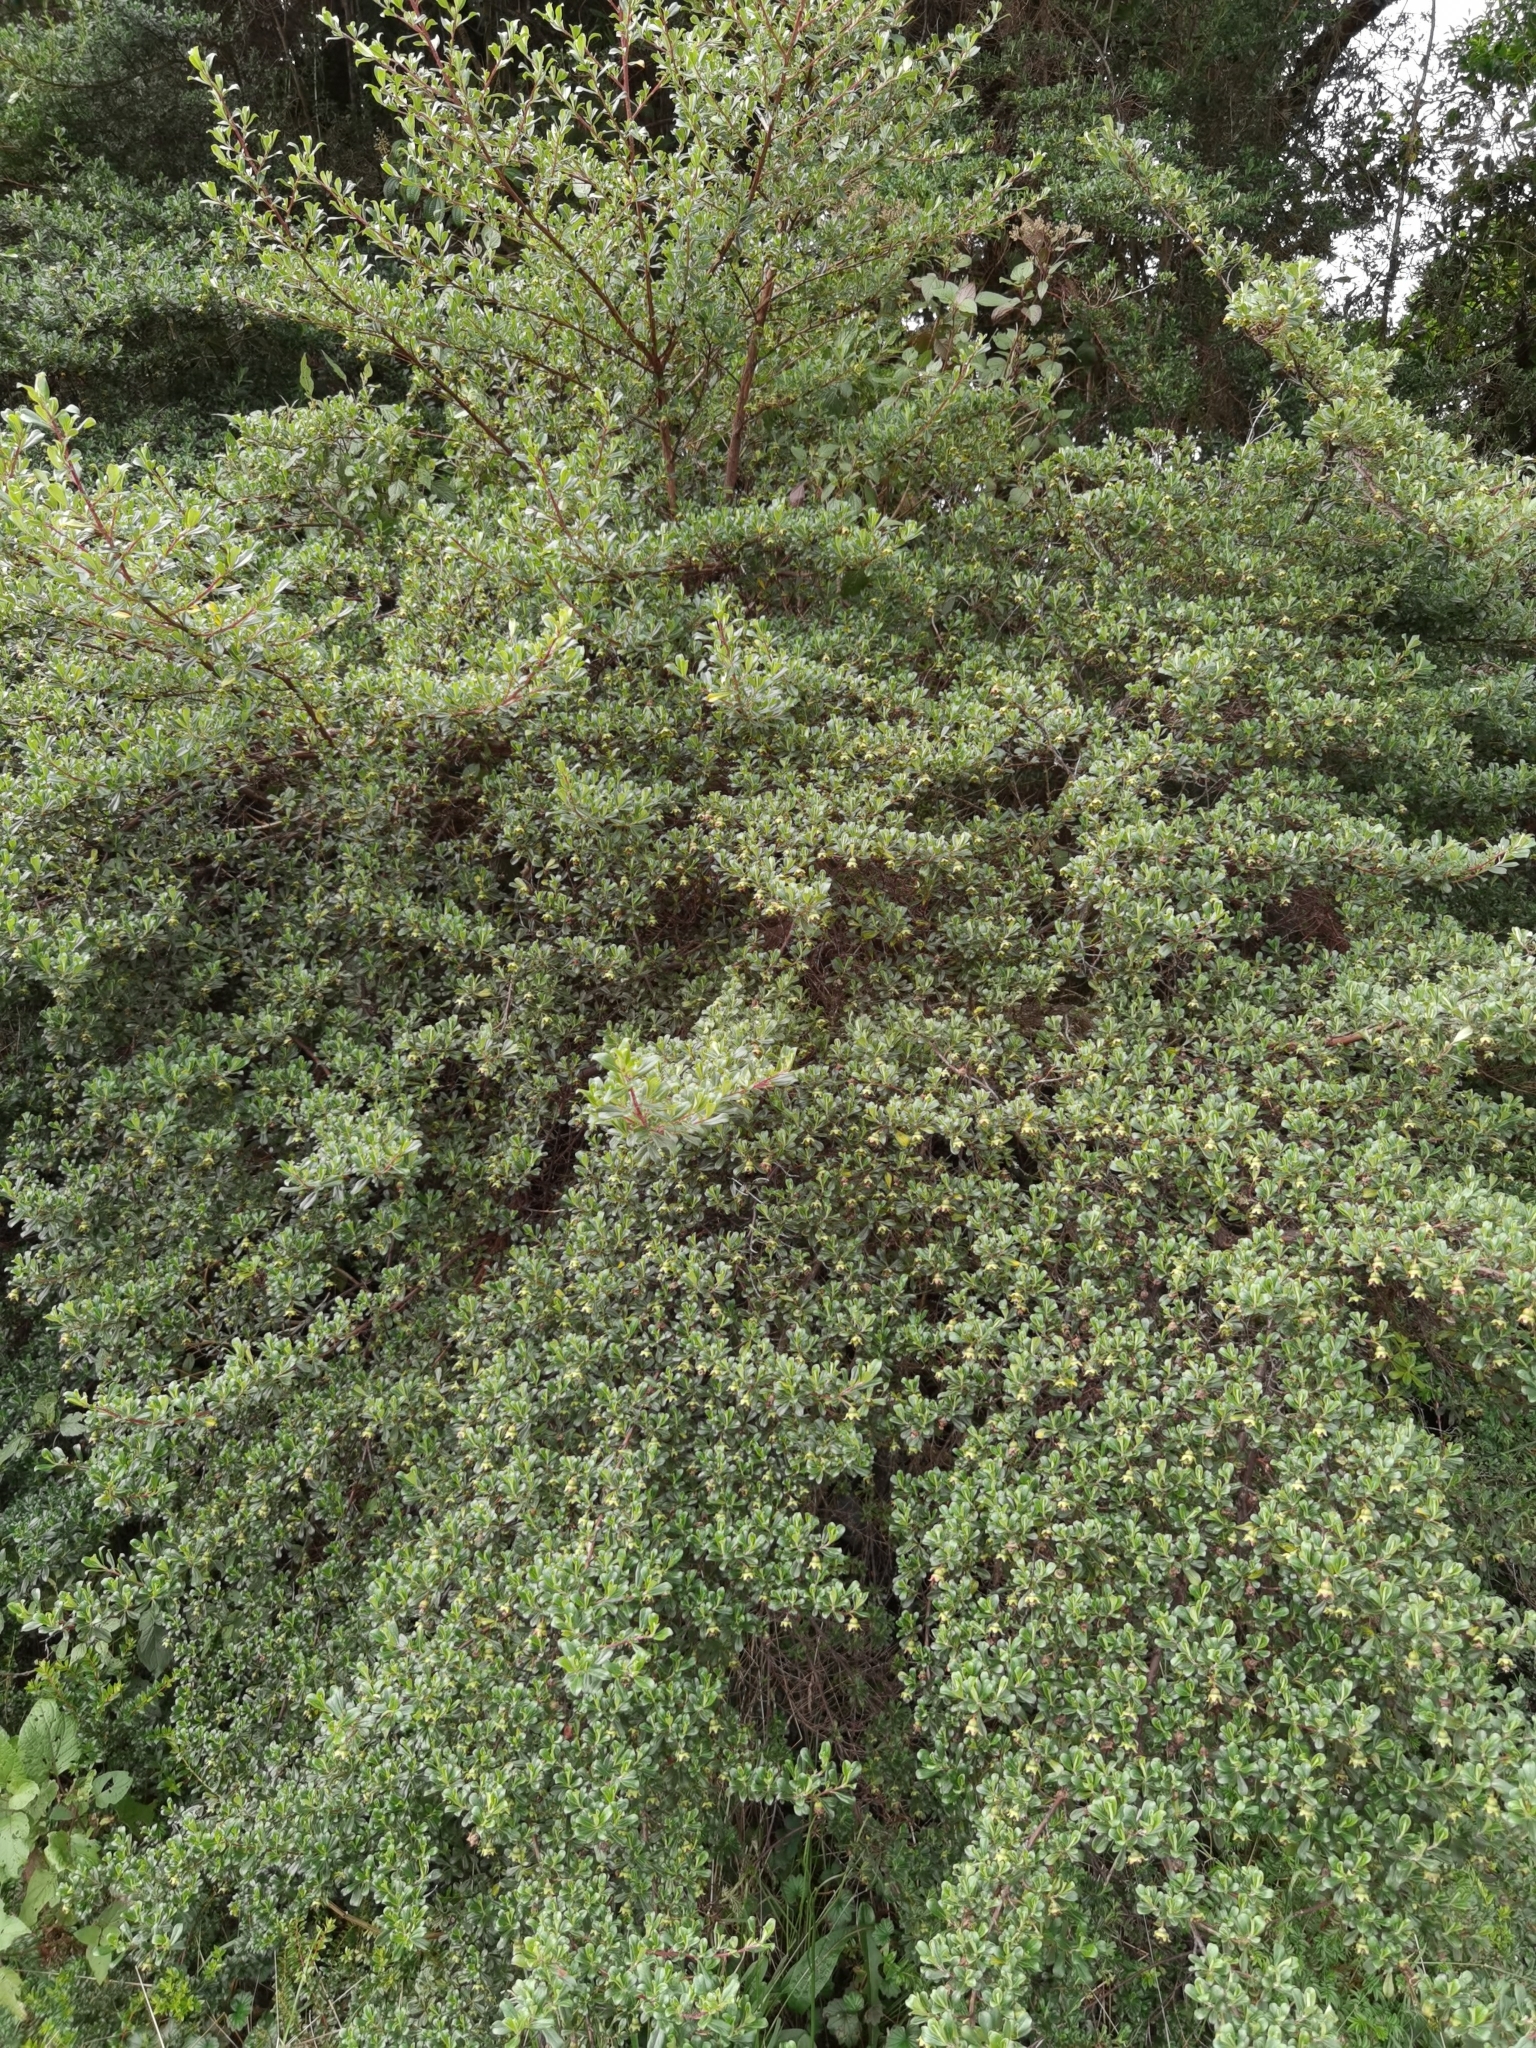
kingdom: Plantae
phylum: Tracheophyta
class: Magnoliopsida
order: Escalloniales
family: Escalloniaceae
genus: Escallonia
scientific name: Escallonia myrtilloides
